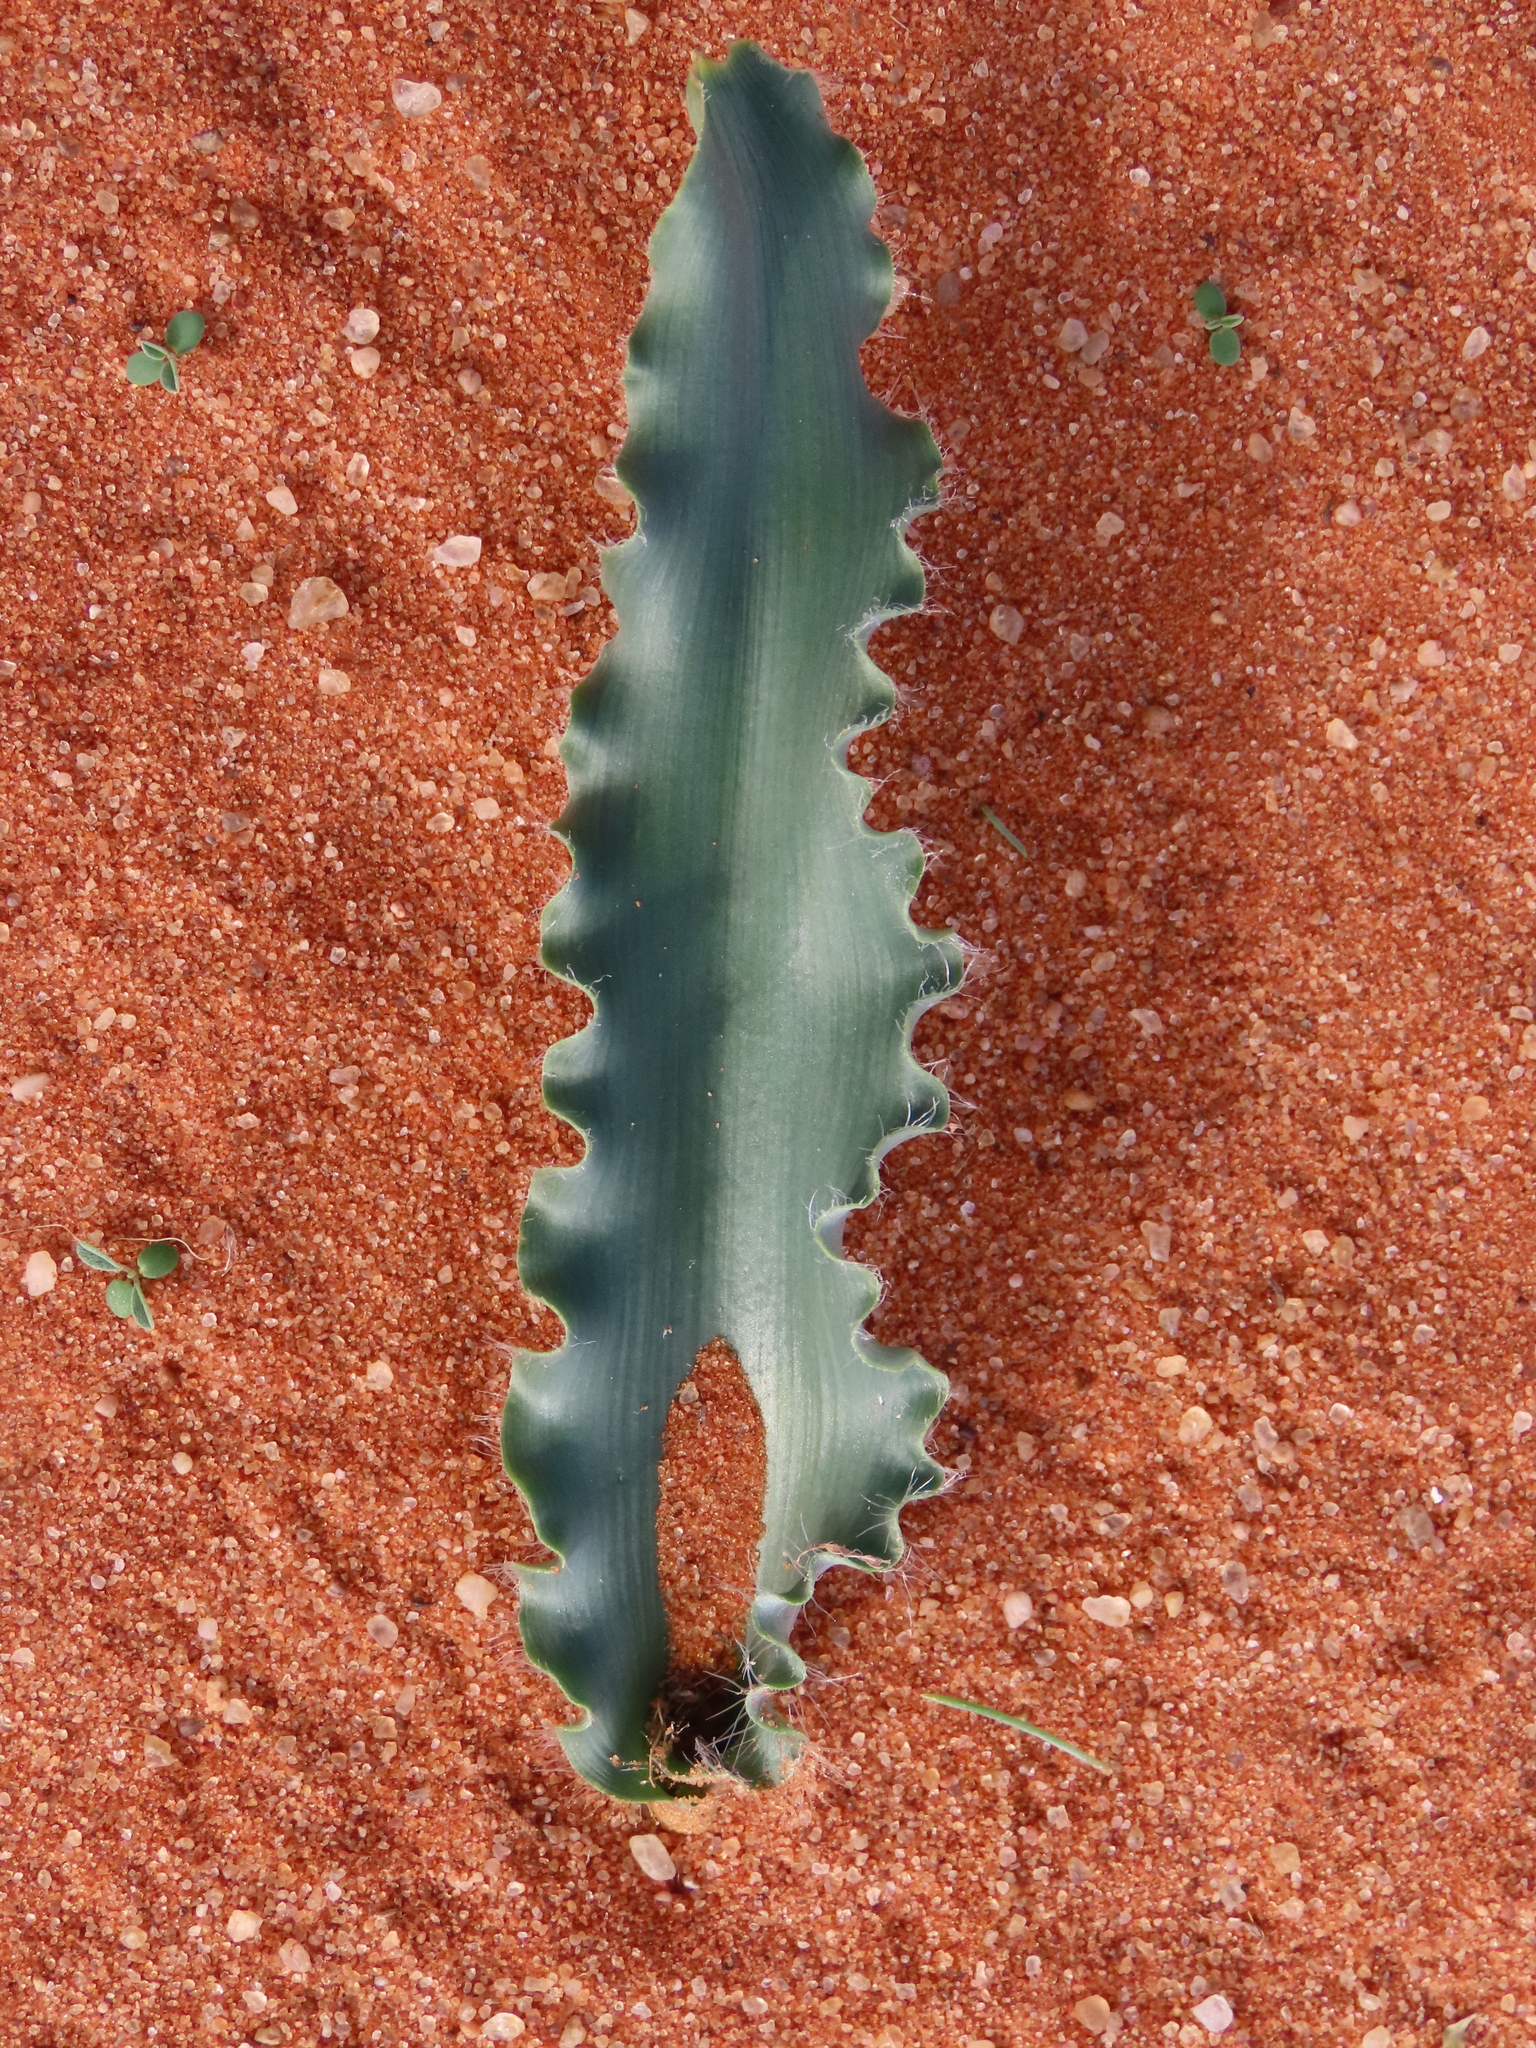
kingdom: Plantae
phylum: Tracheophyta
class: Liliopsida
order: Asparagales
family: Asparagaceae
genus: Dipcadi
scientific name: Dipcadi platyphyllum
